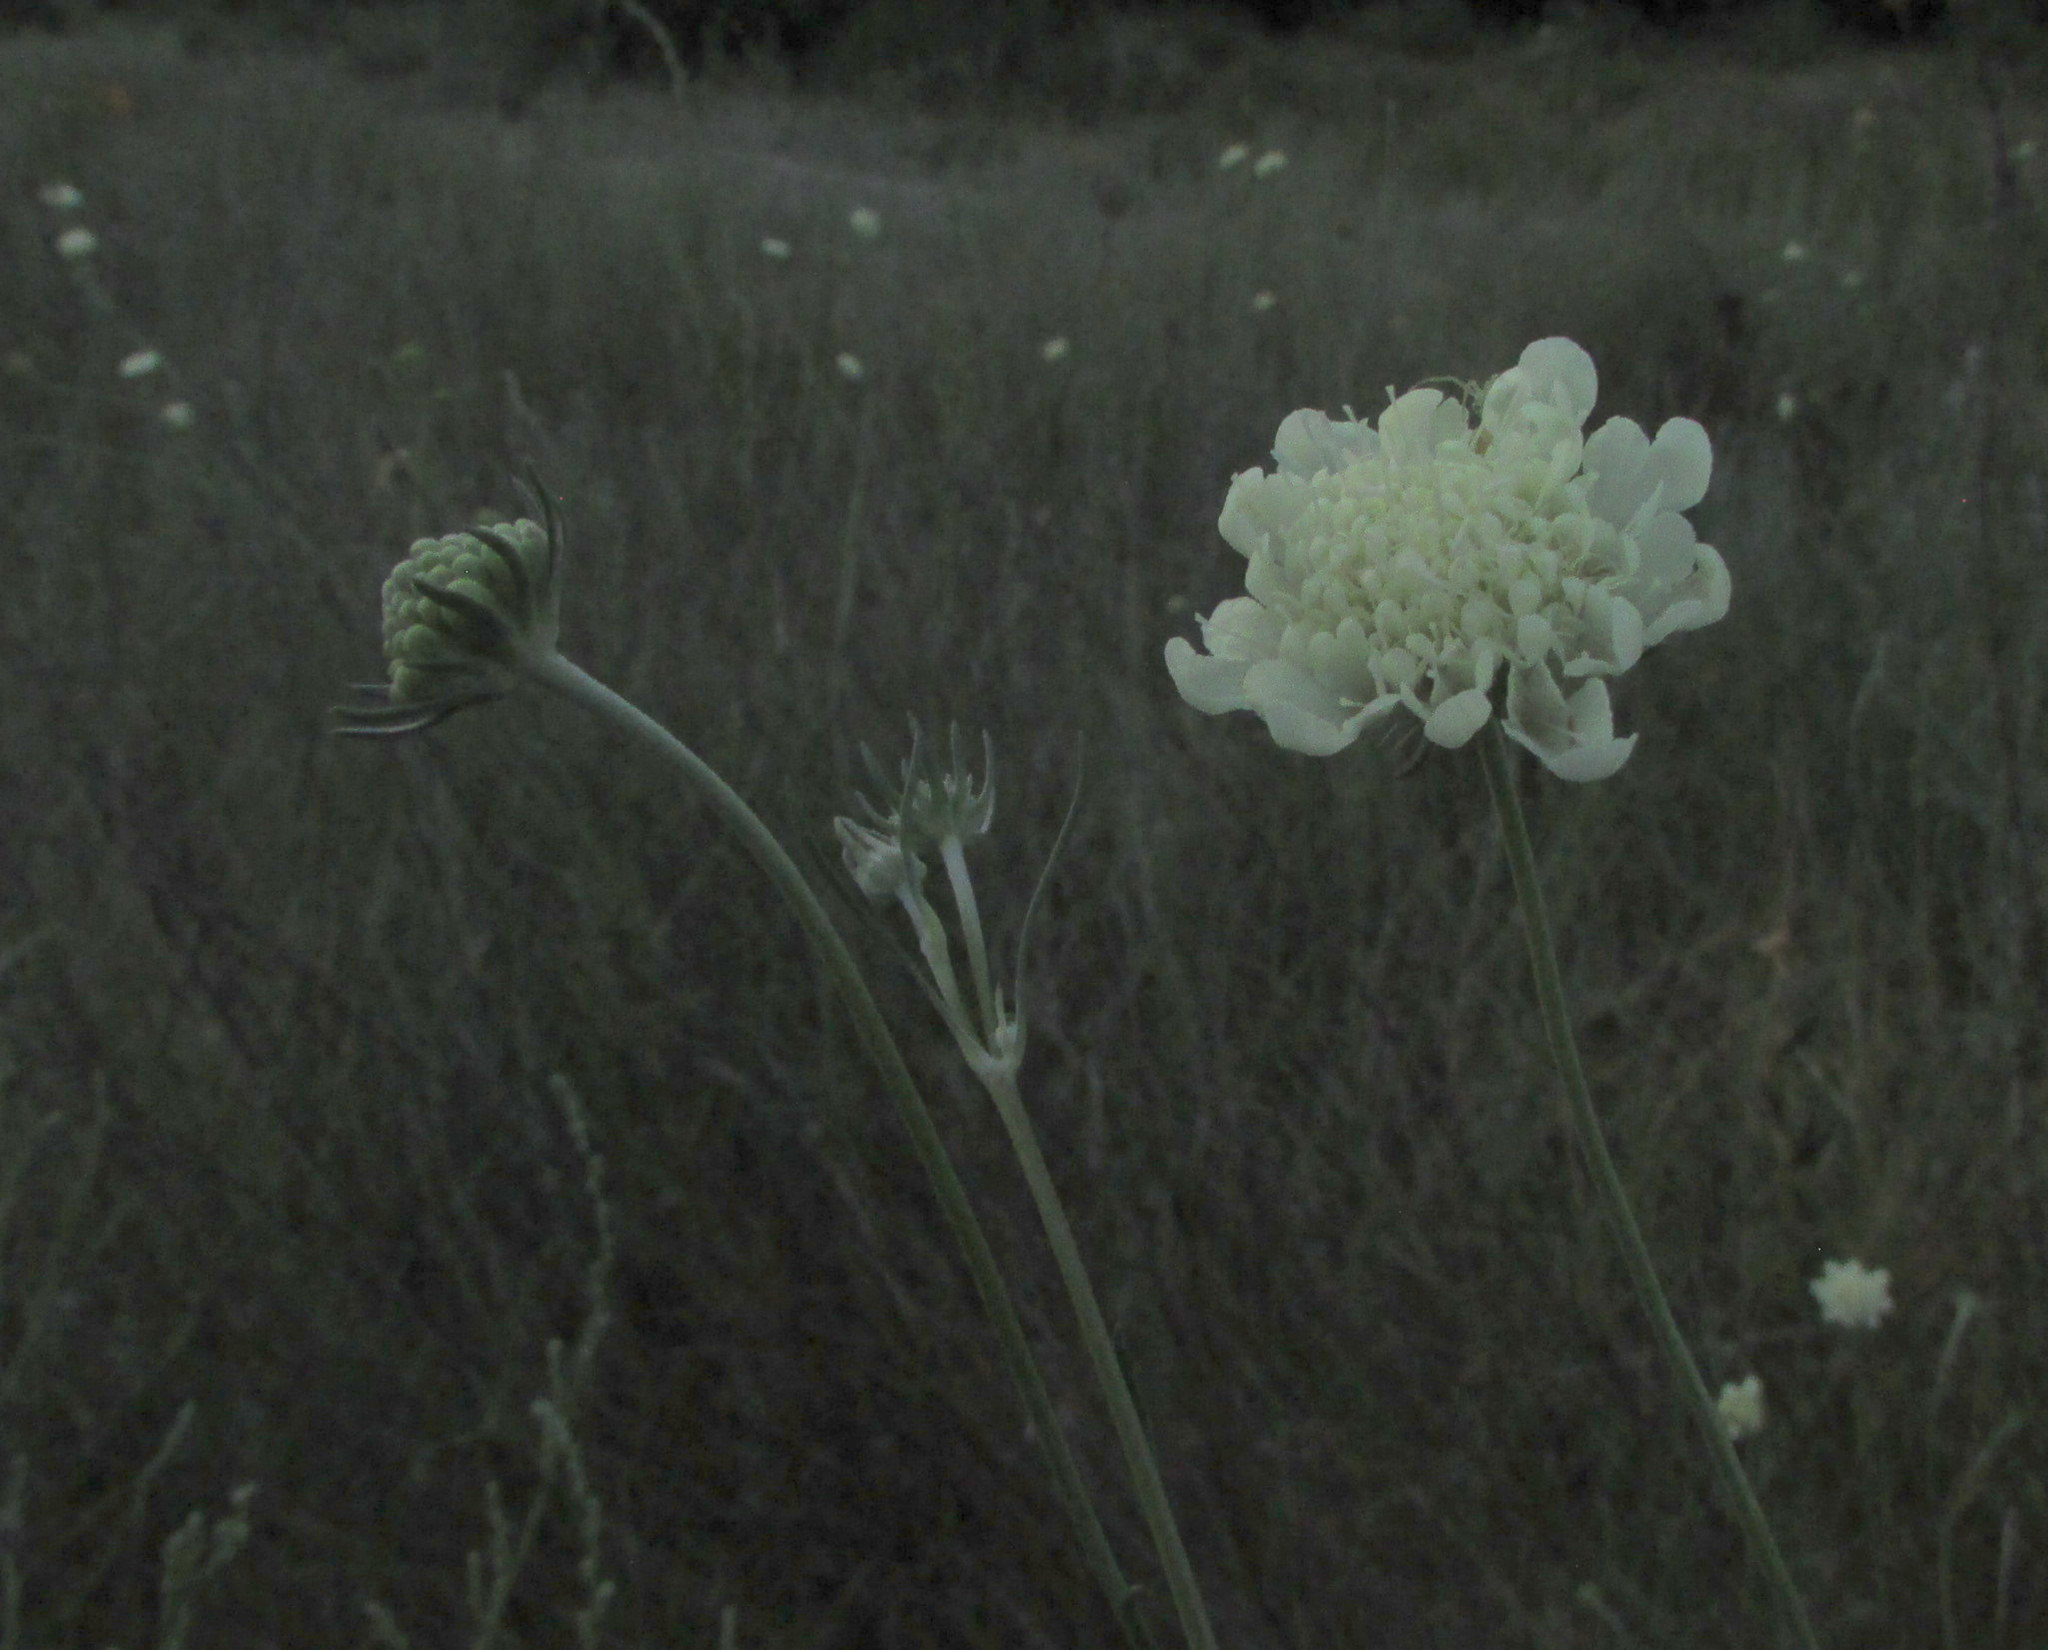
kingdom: Plantae
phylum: Tracheophyta
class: Magnoliopsida
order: Dipsacales
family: Caprifoliaceae
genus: Scabiosa
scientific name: Scabiosa ochroleuca
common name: Cream pincushions
